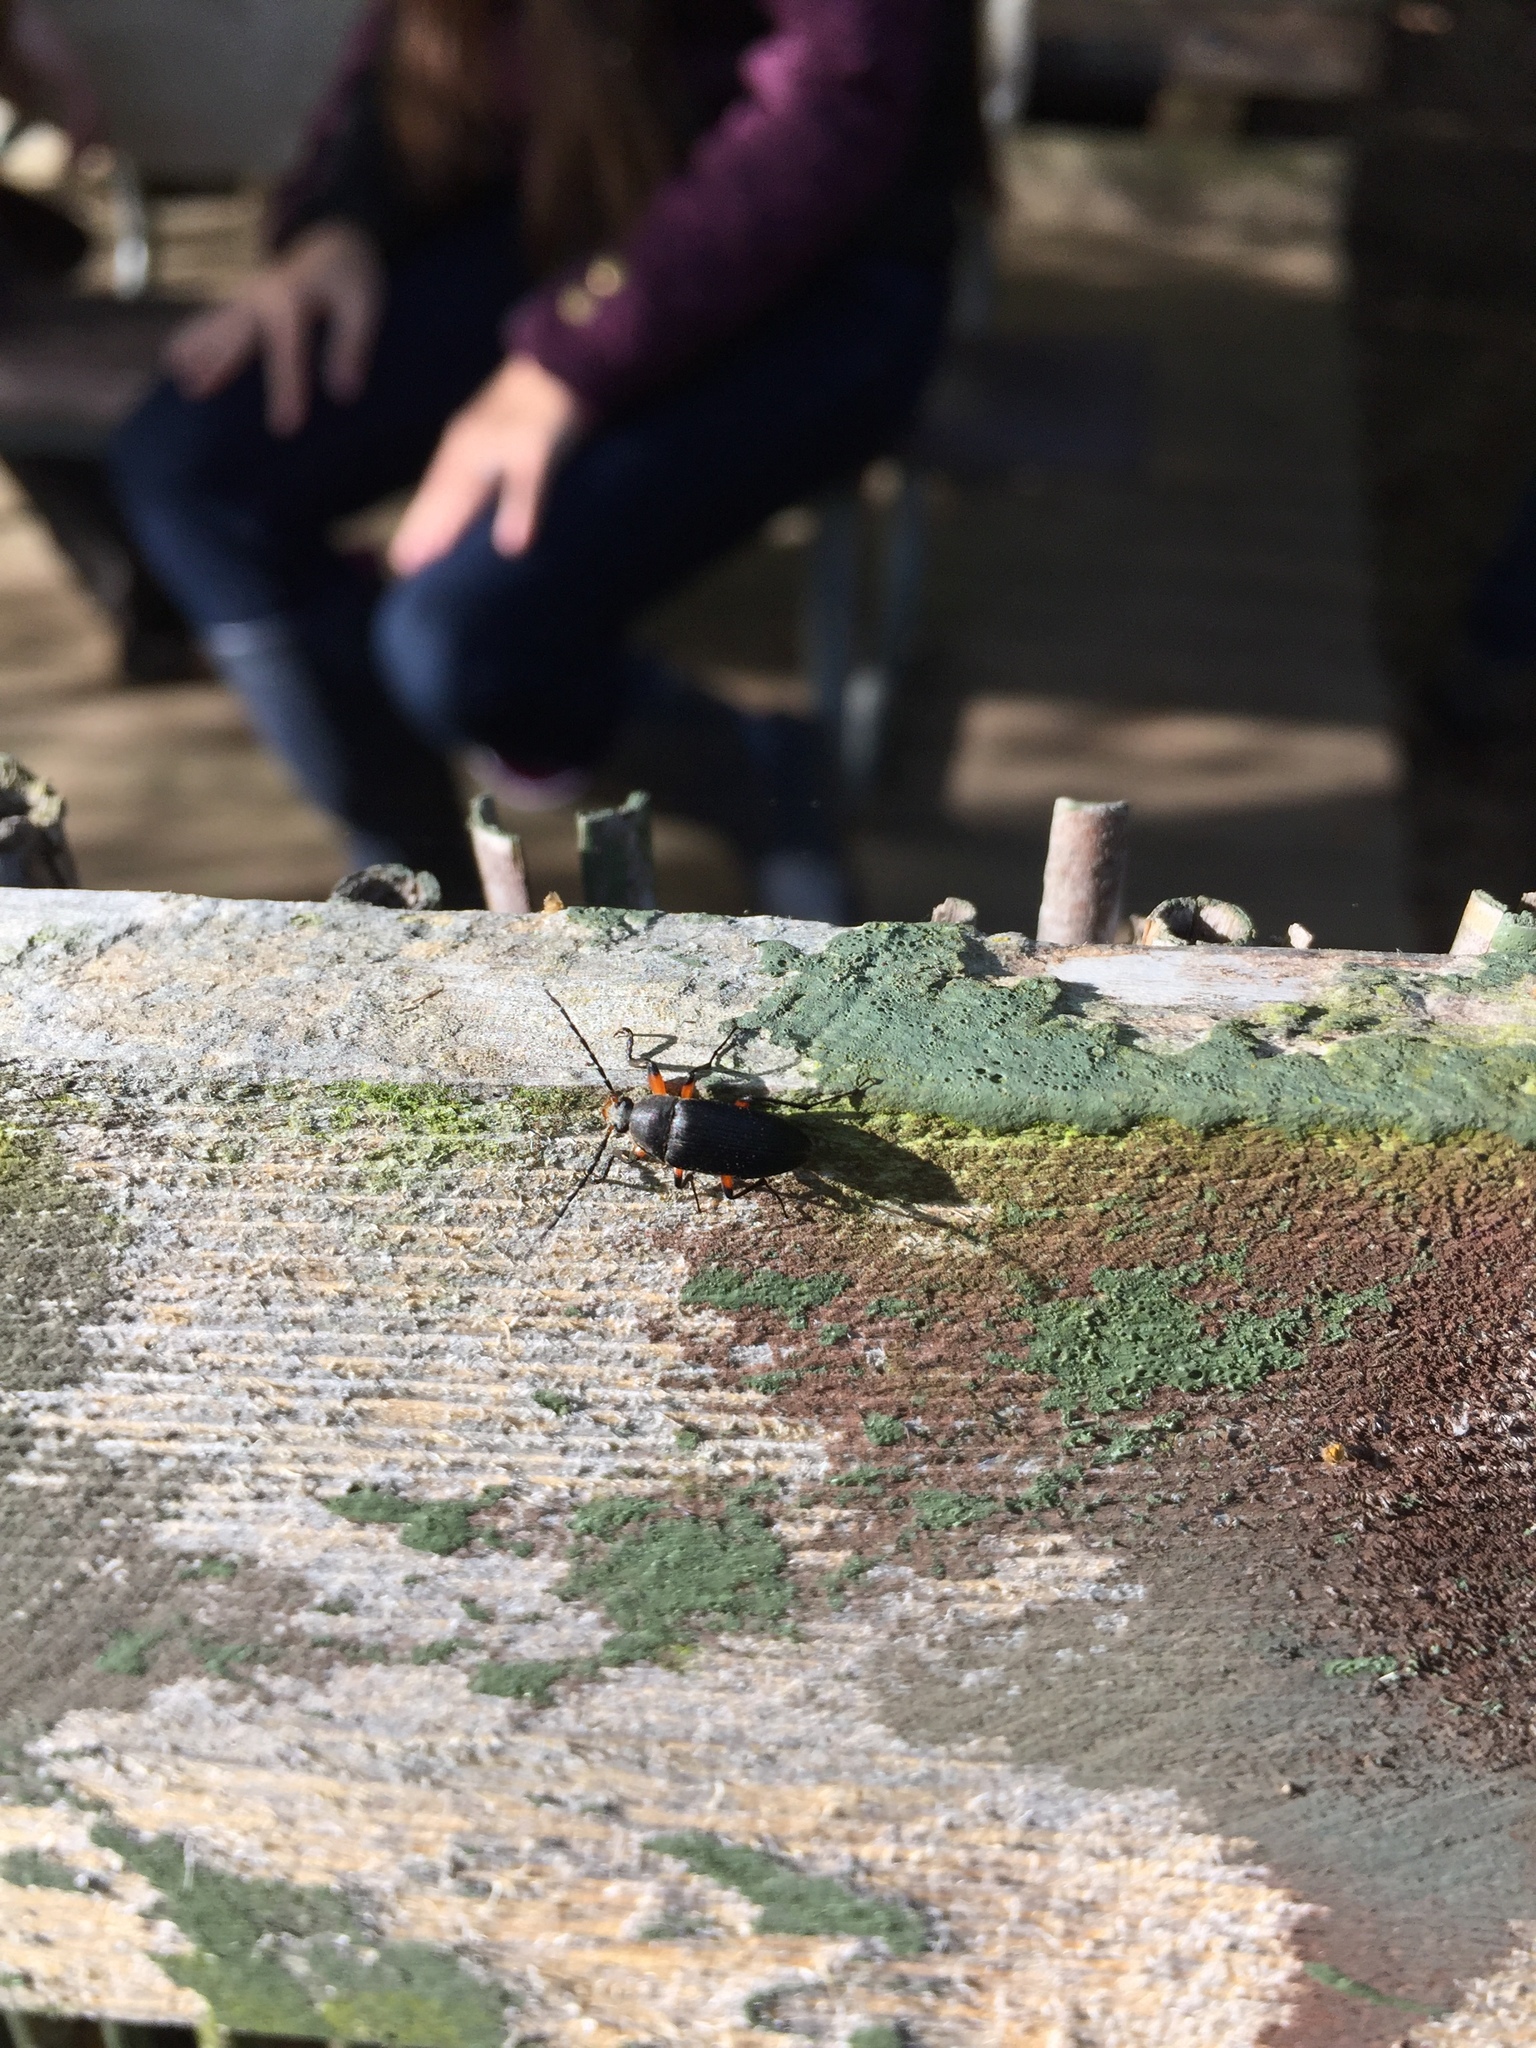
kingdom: Animalia
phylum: Arthropoda
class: Insecta
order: Coleoptera
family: Tenebrionidae
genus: Androchirus
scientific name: Androchirus femoralis
